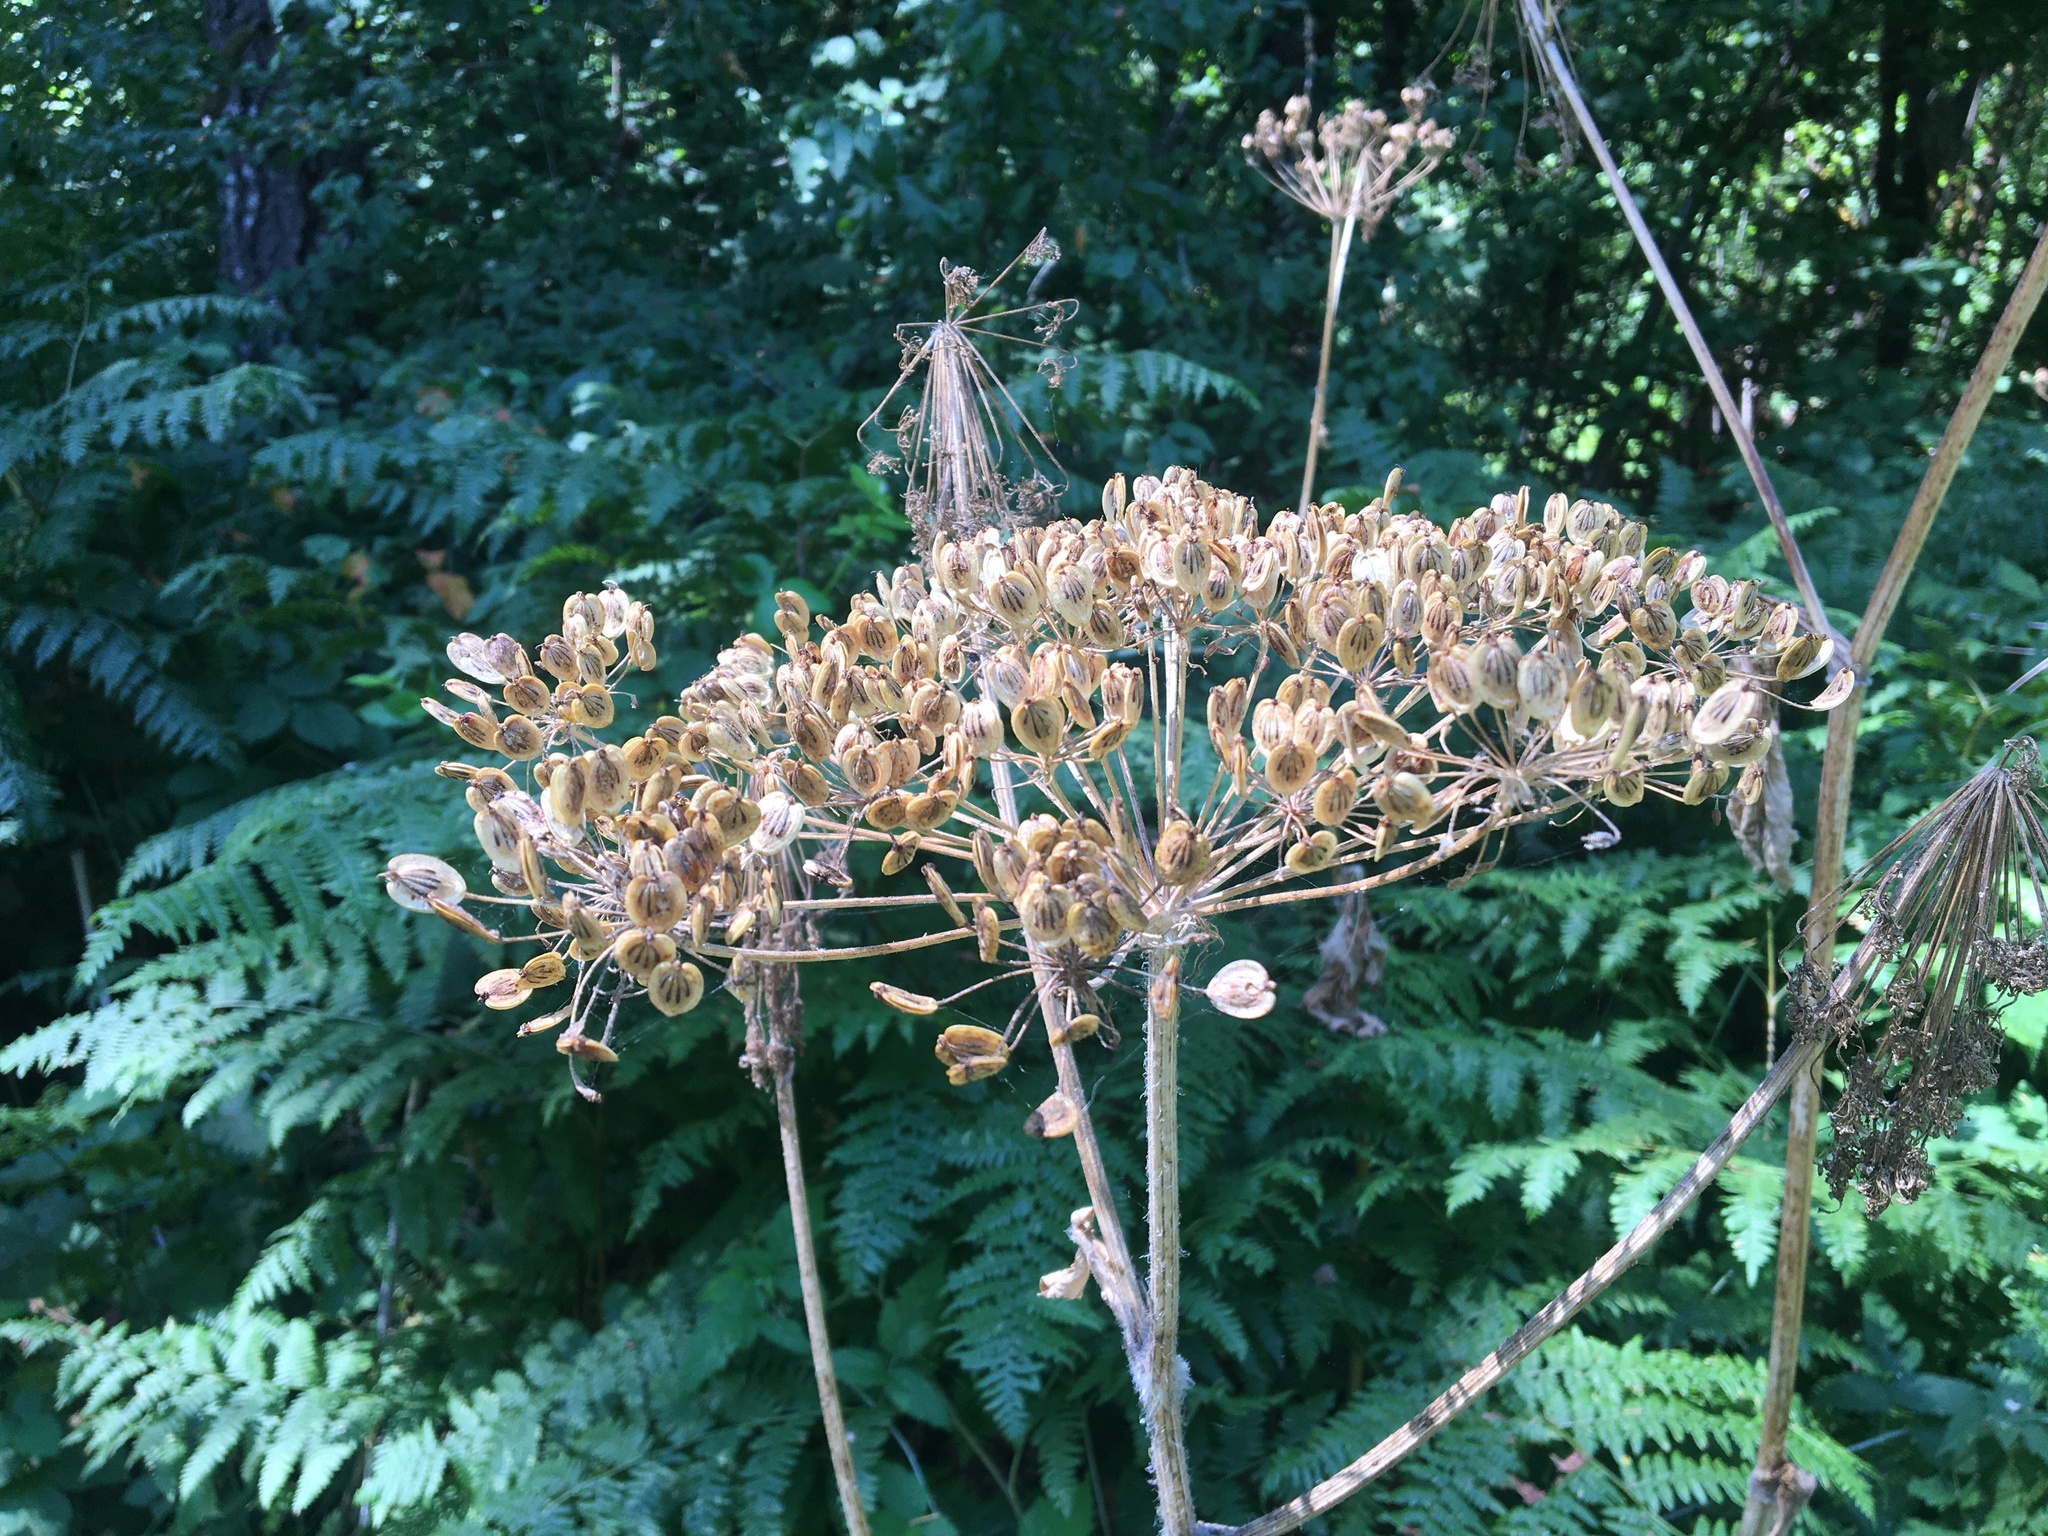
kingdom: Plantae
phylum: Tracheophyta
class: Magnoliopsida
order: Apiales
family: Apiaceae
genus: Heracleum
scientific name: Heracleum maximum
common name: American cow parsnip
